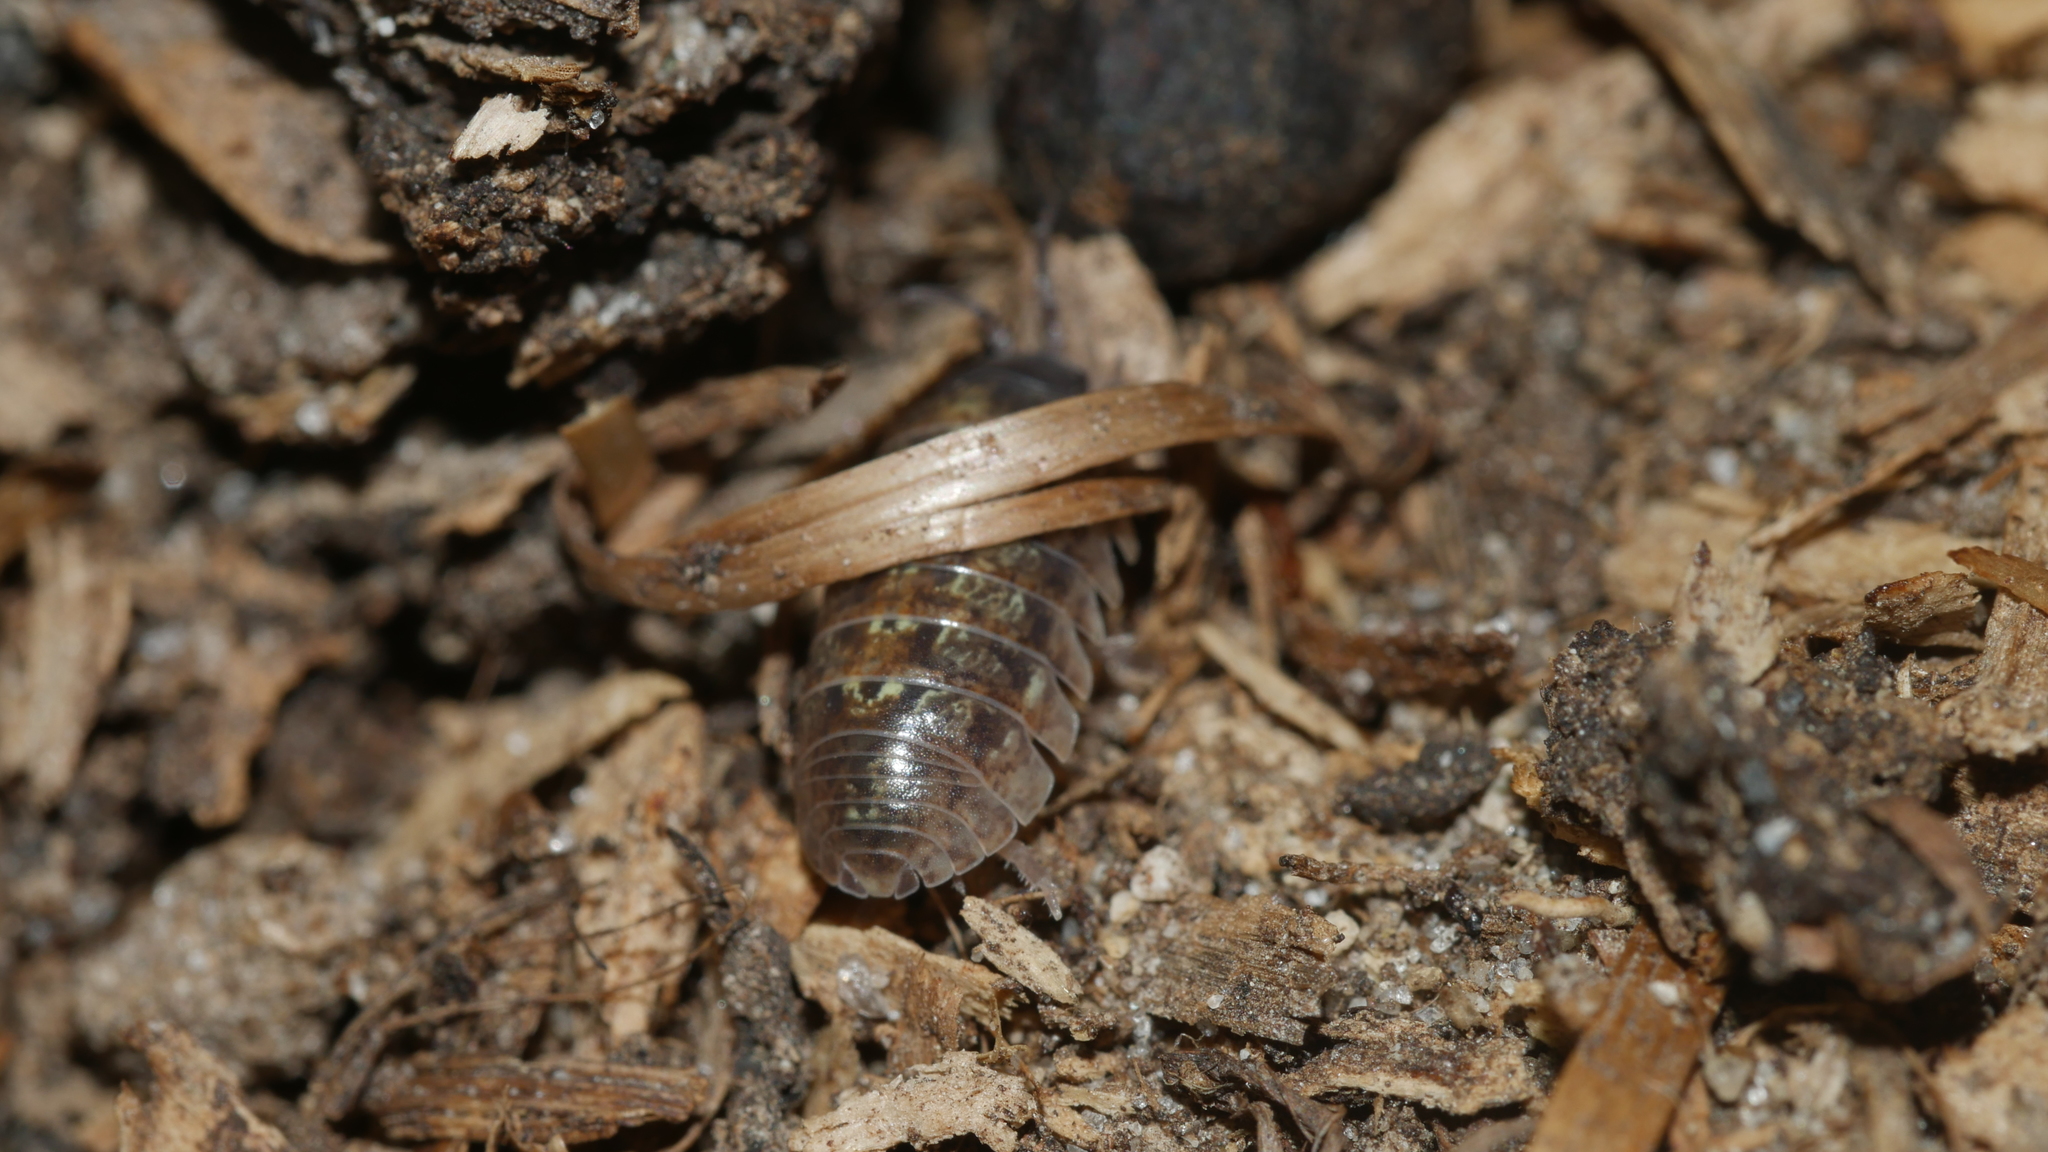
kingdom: Animalia
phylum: Arthropoda
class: Malacostraca
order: Isopoda
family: Armadillidiidae
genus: Armadillidium
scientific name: Armadillidium vulgare
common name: Common pill woodlouse
